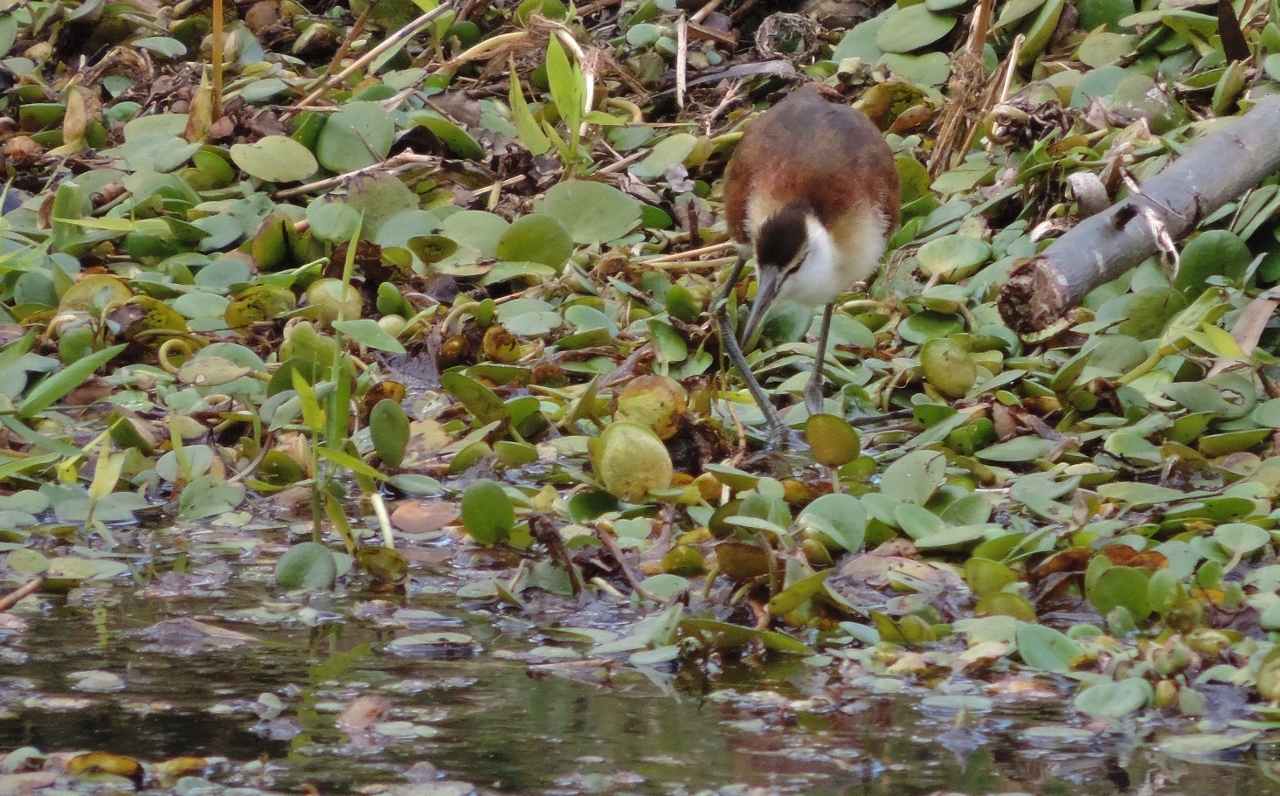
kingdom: Animalia
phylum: Chordata
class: Aves
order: Charadriiformes
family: Jacanidae
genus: Actophilornis
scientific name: Actophilornis africanus
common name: African jacana
